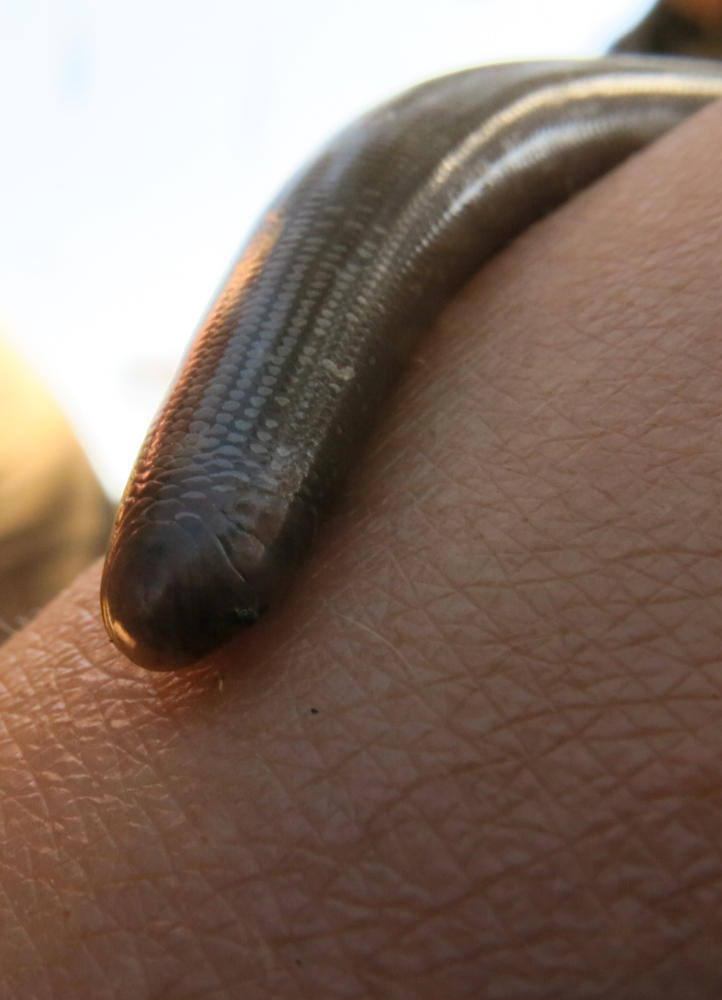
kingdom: Animalia
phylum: Chordata
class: Squamata
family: Typhlopidae
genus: Afrotyphlops
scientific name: Afrotyphlops bibronii
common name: Bibron's blind snake
